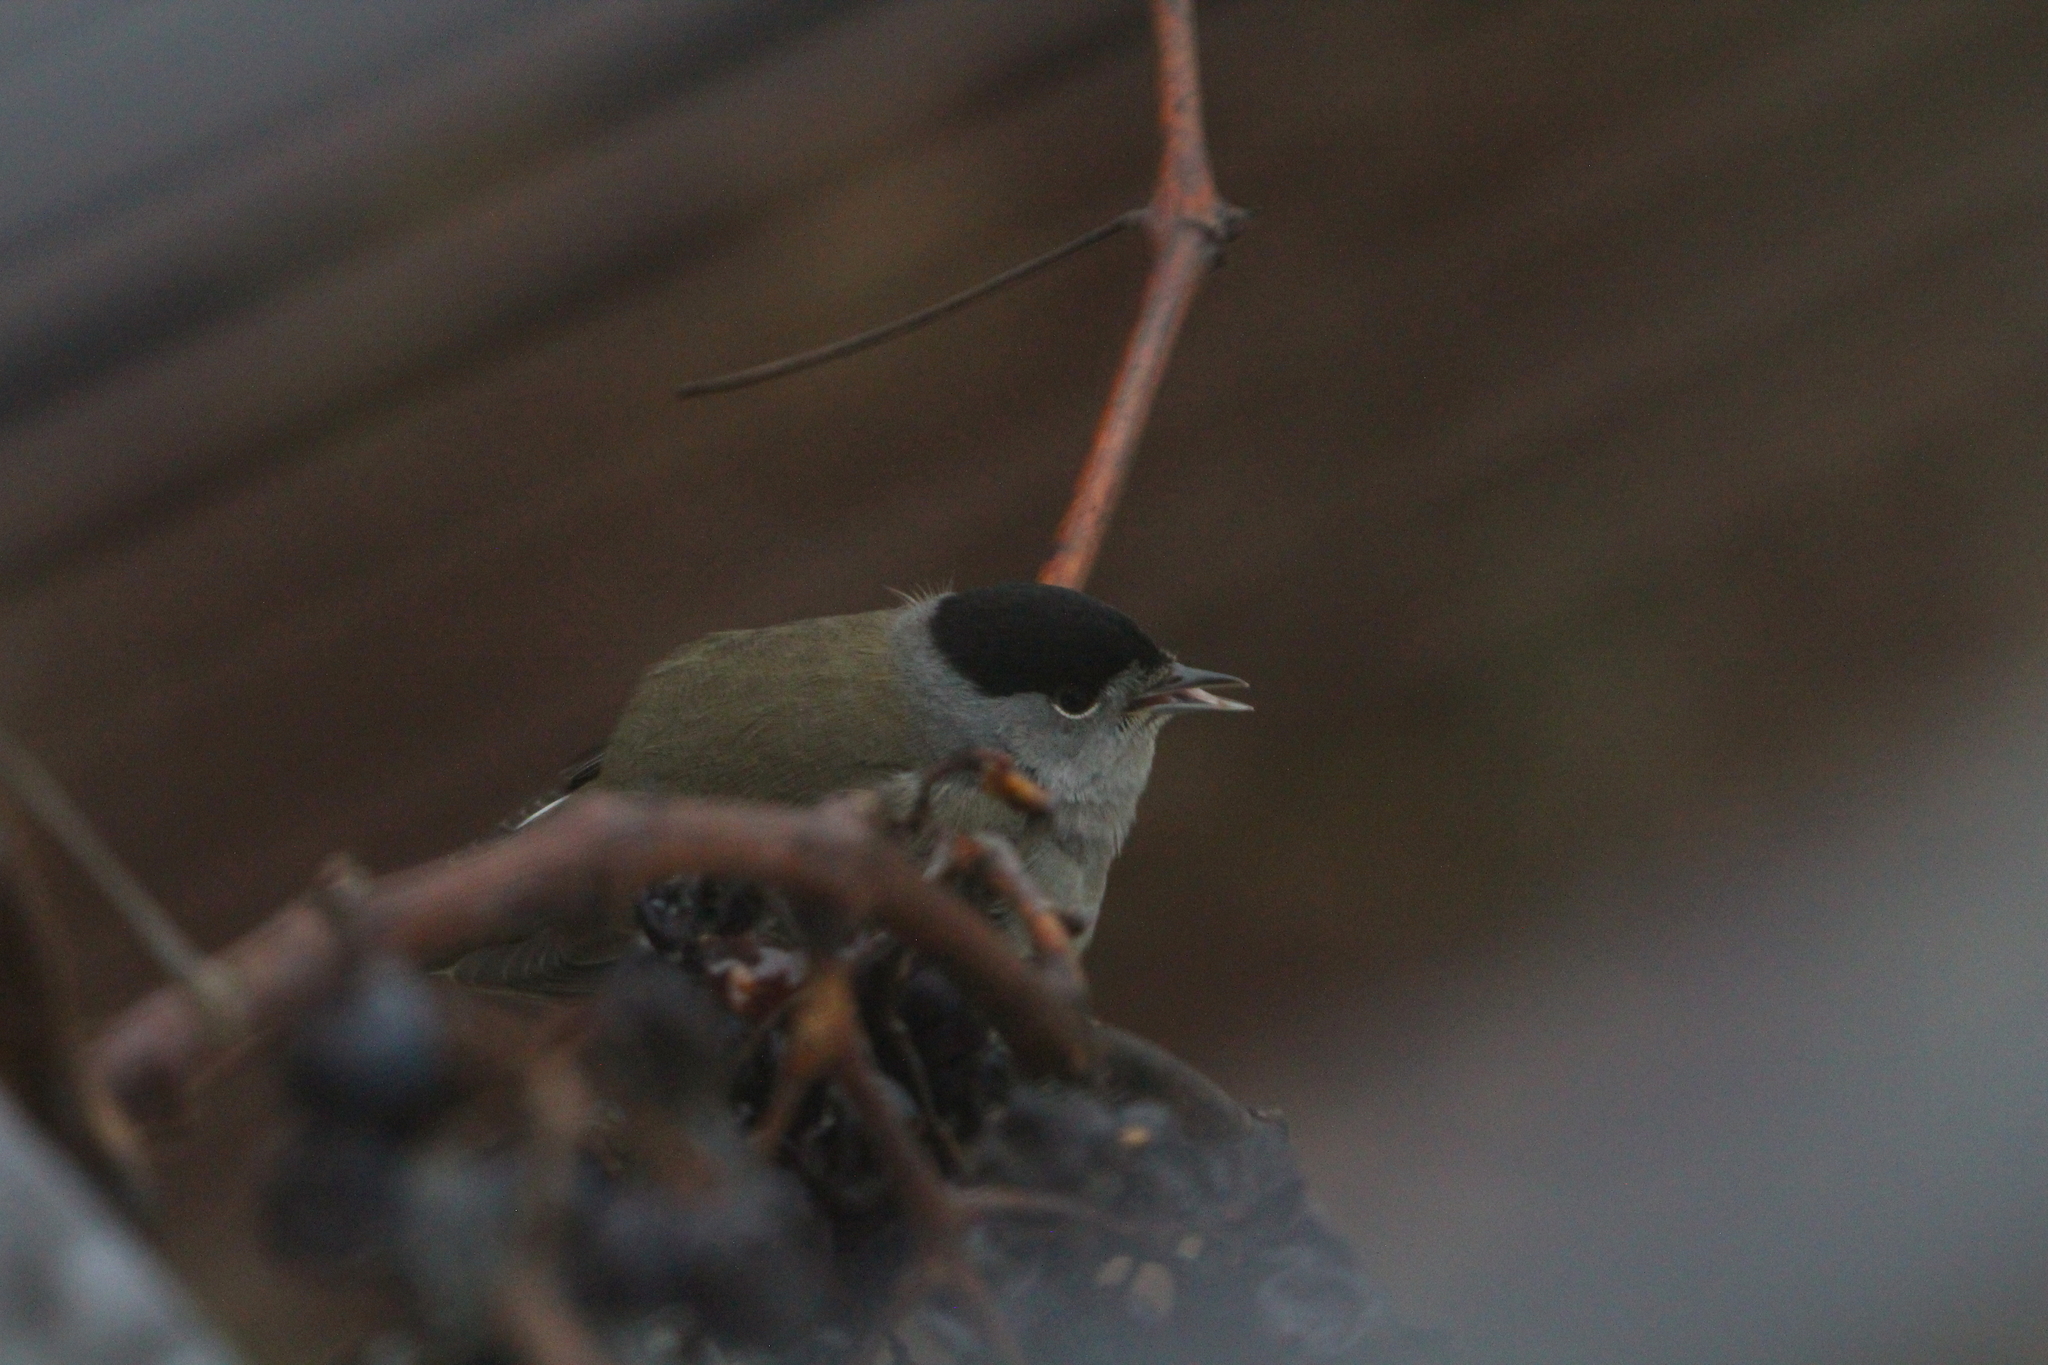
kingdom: Animalia
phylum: Chordata
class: Aves
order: Passeriformes
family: Sylviidae
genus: Sylvia
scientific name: Sylvia atricapilla
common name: Eurasian blackcap
